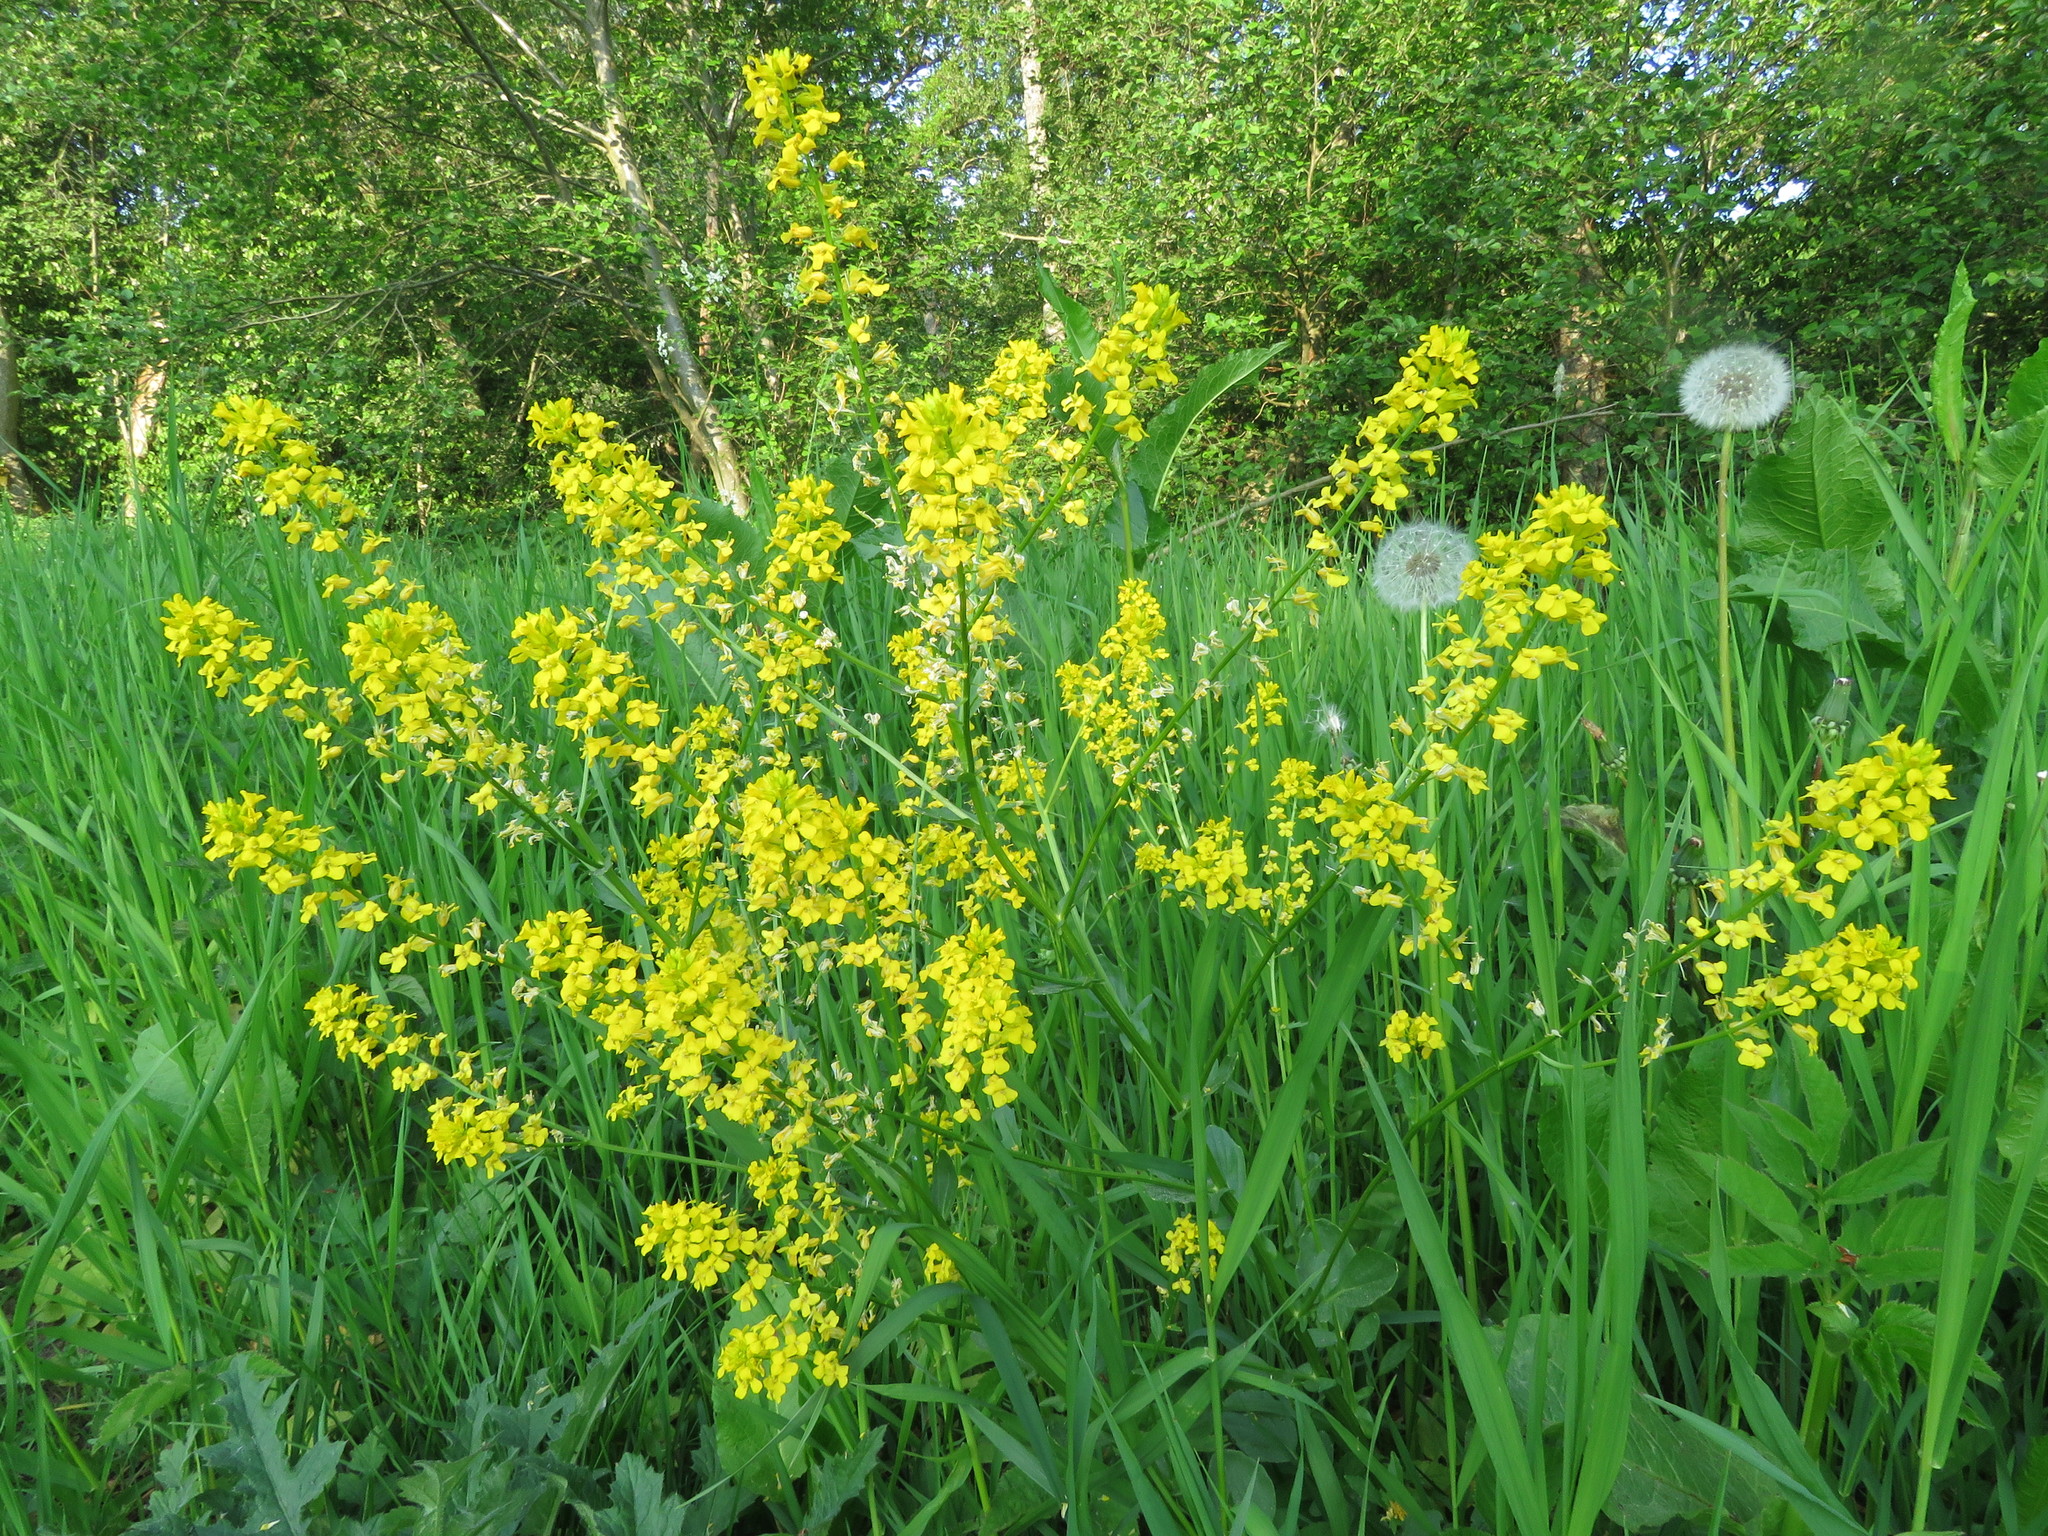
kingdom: Plantae
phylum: Tracheophyta
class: Magnoliopsida
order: Brassicales
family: Brassicaceae
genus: Barbarea
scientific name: Barbarea vulgaris
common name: Cressy-greens
